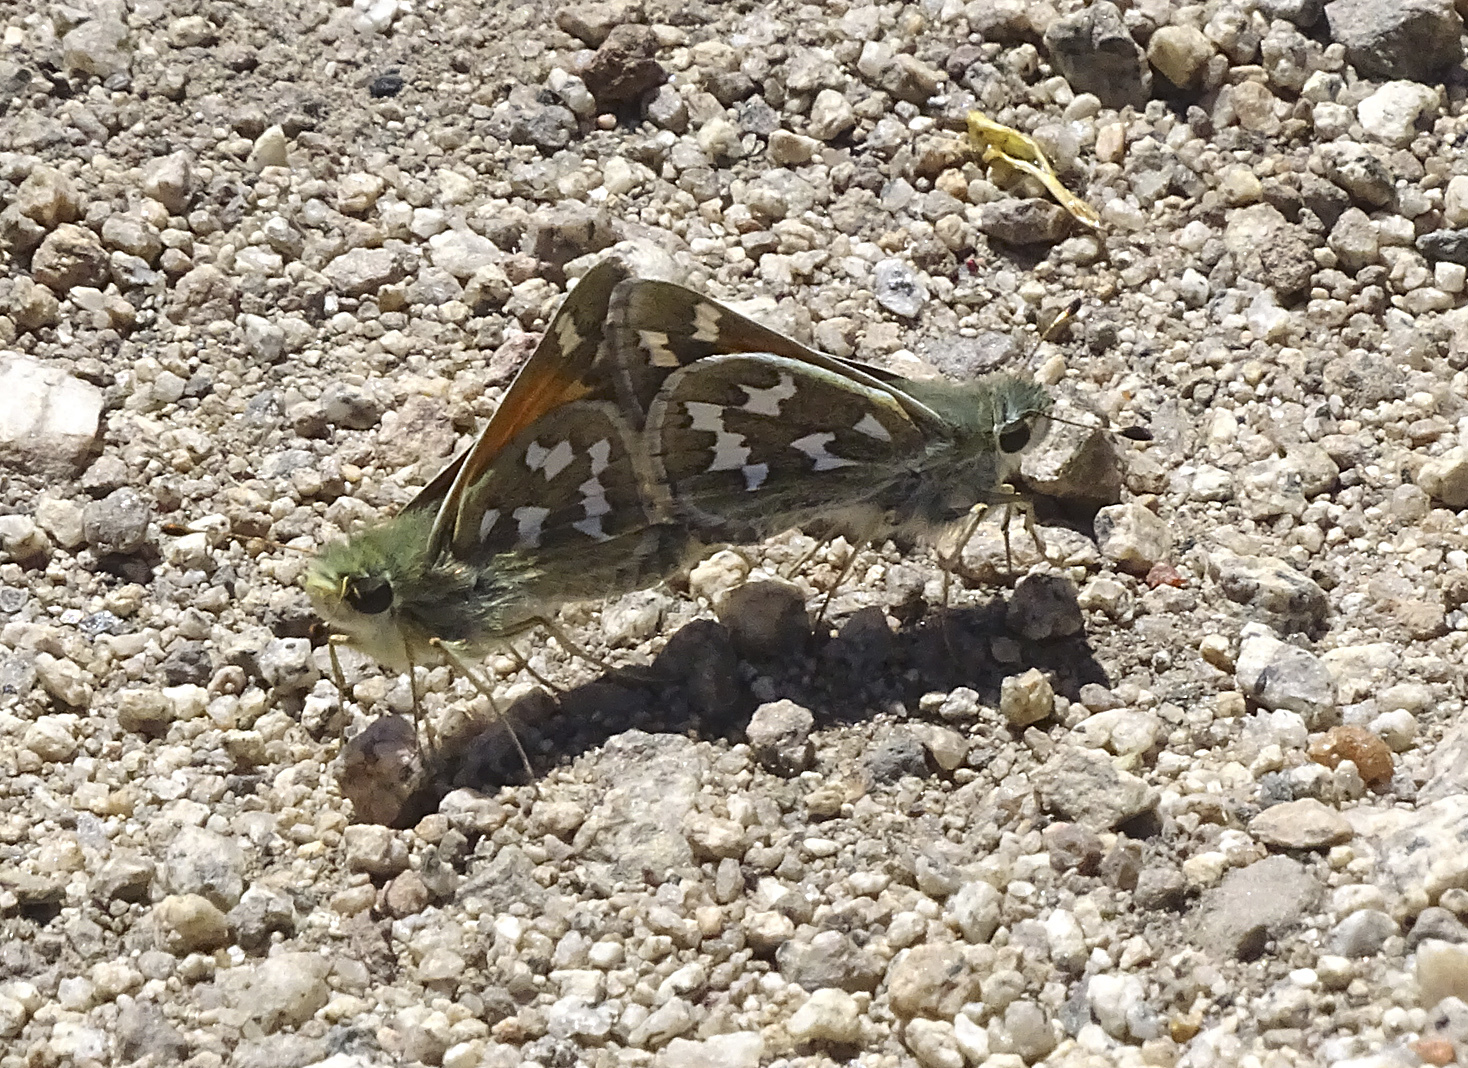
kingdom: Animalia
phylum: Arthropoda
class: Insecta
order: Lepidoptera
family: Hesperiidae
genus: Hesperia
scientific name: Hesperia juba
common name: Juba skipper
